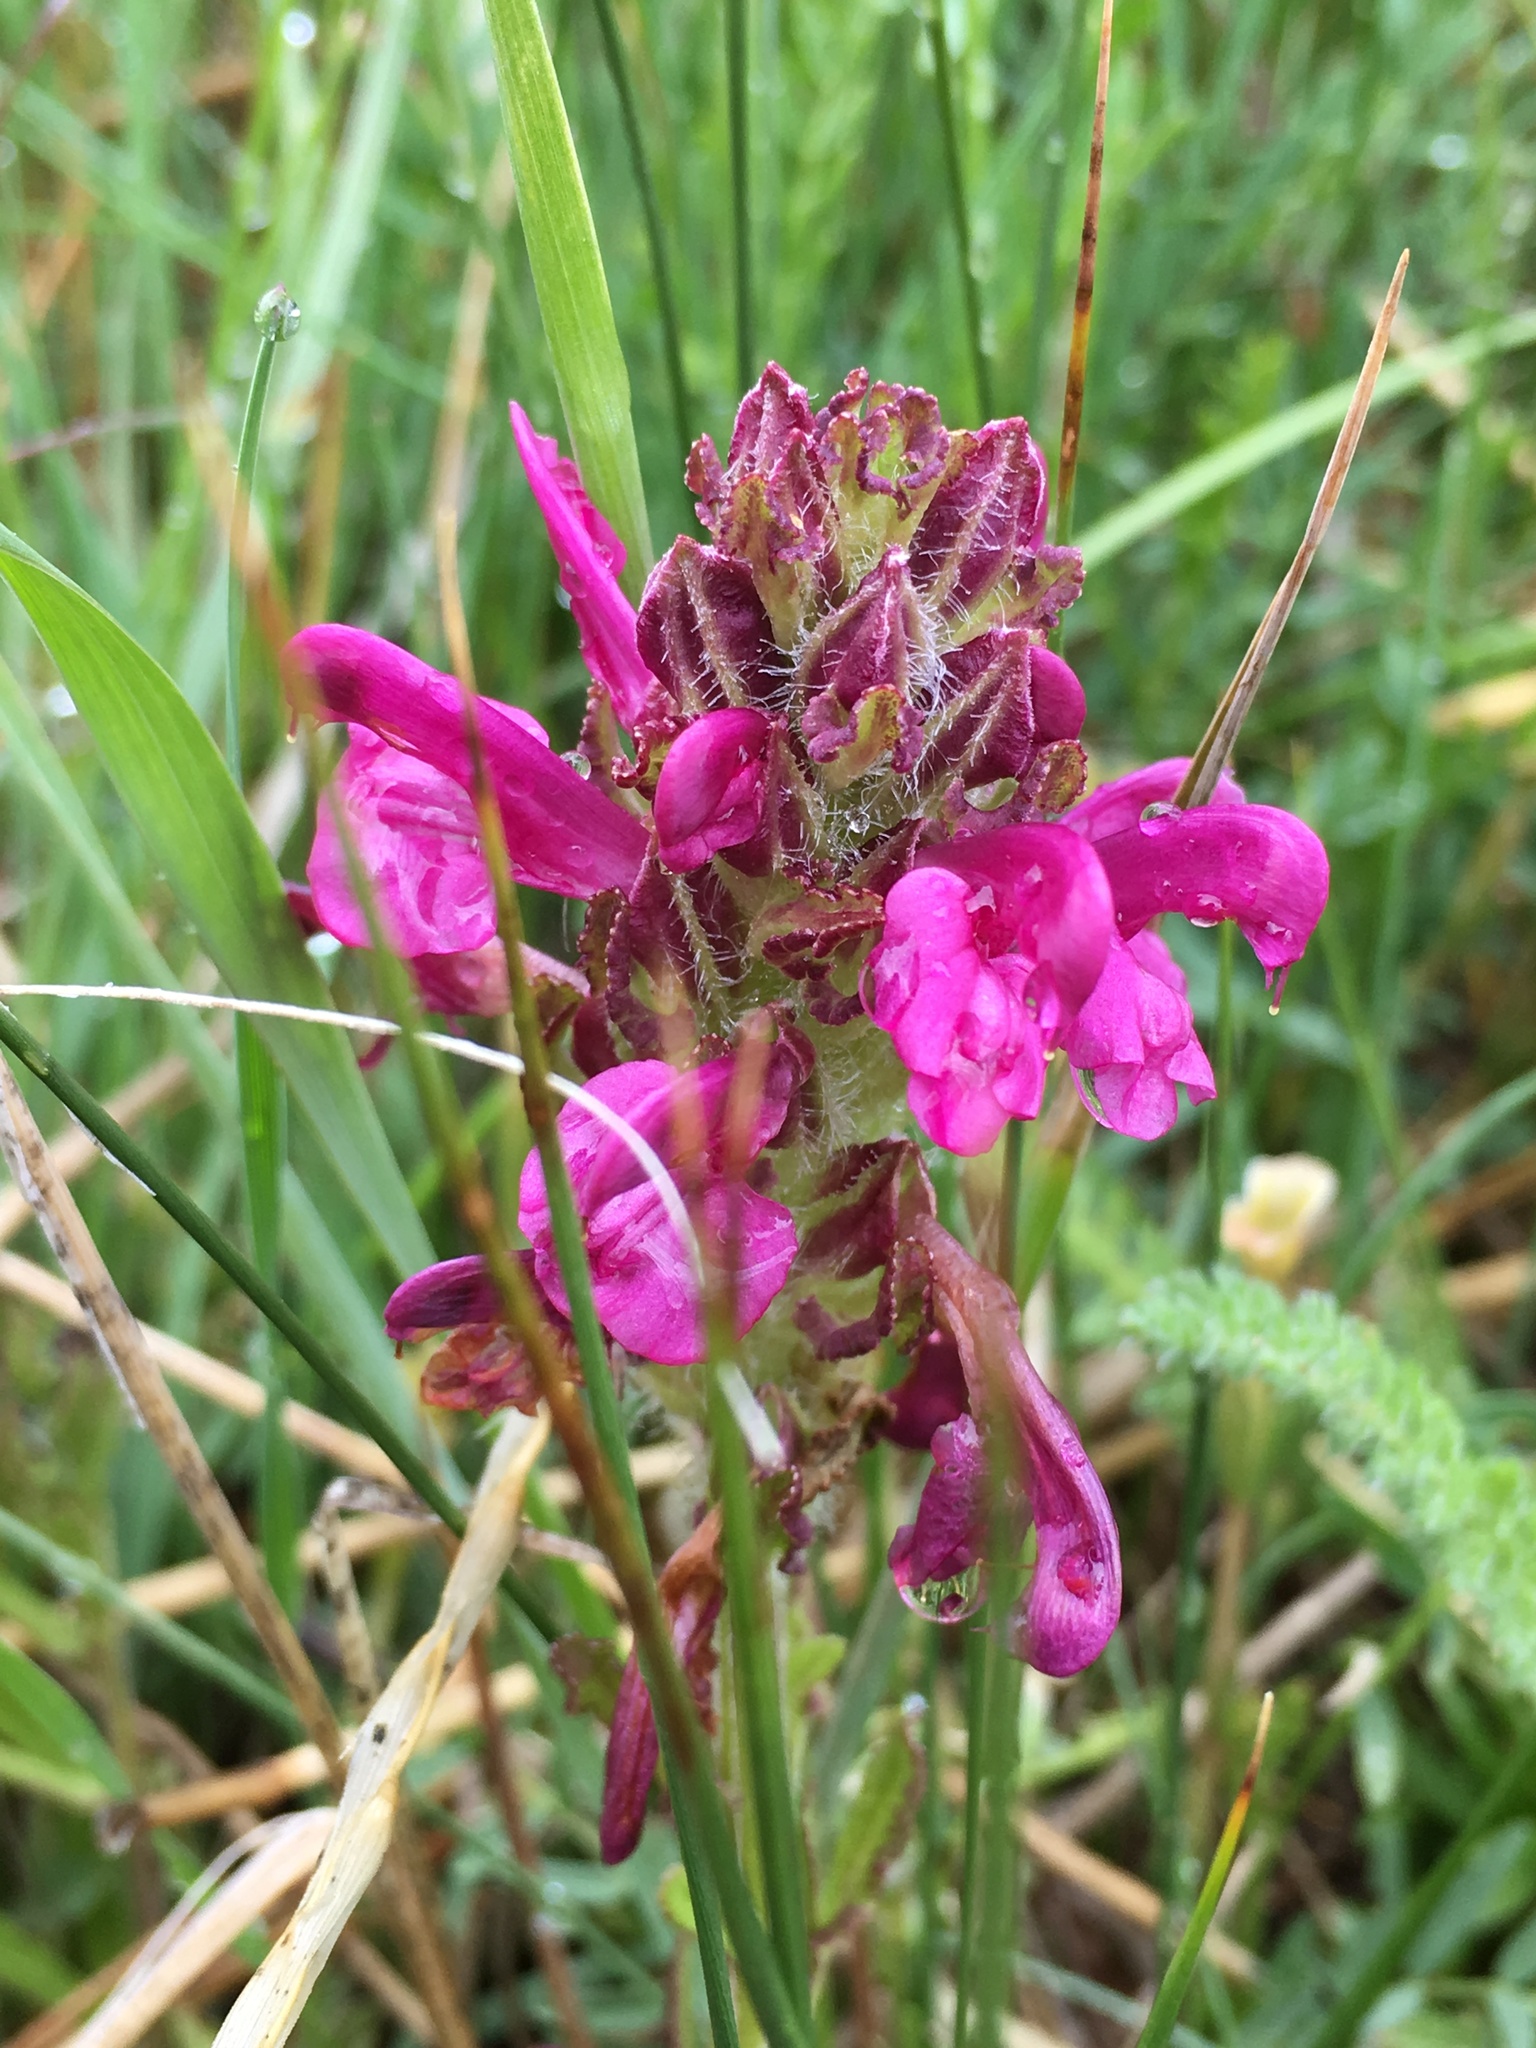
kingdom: Plantae
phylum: Tracheophyta
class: Magnoliopsida
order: Lamiales
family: Orobanchaceae
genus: Pedicularis
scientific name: Pedicularis crenulata
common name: Meadow lousewort
